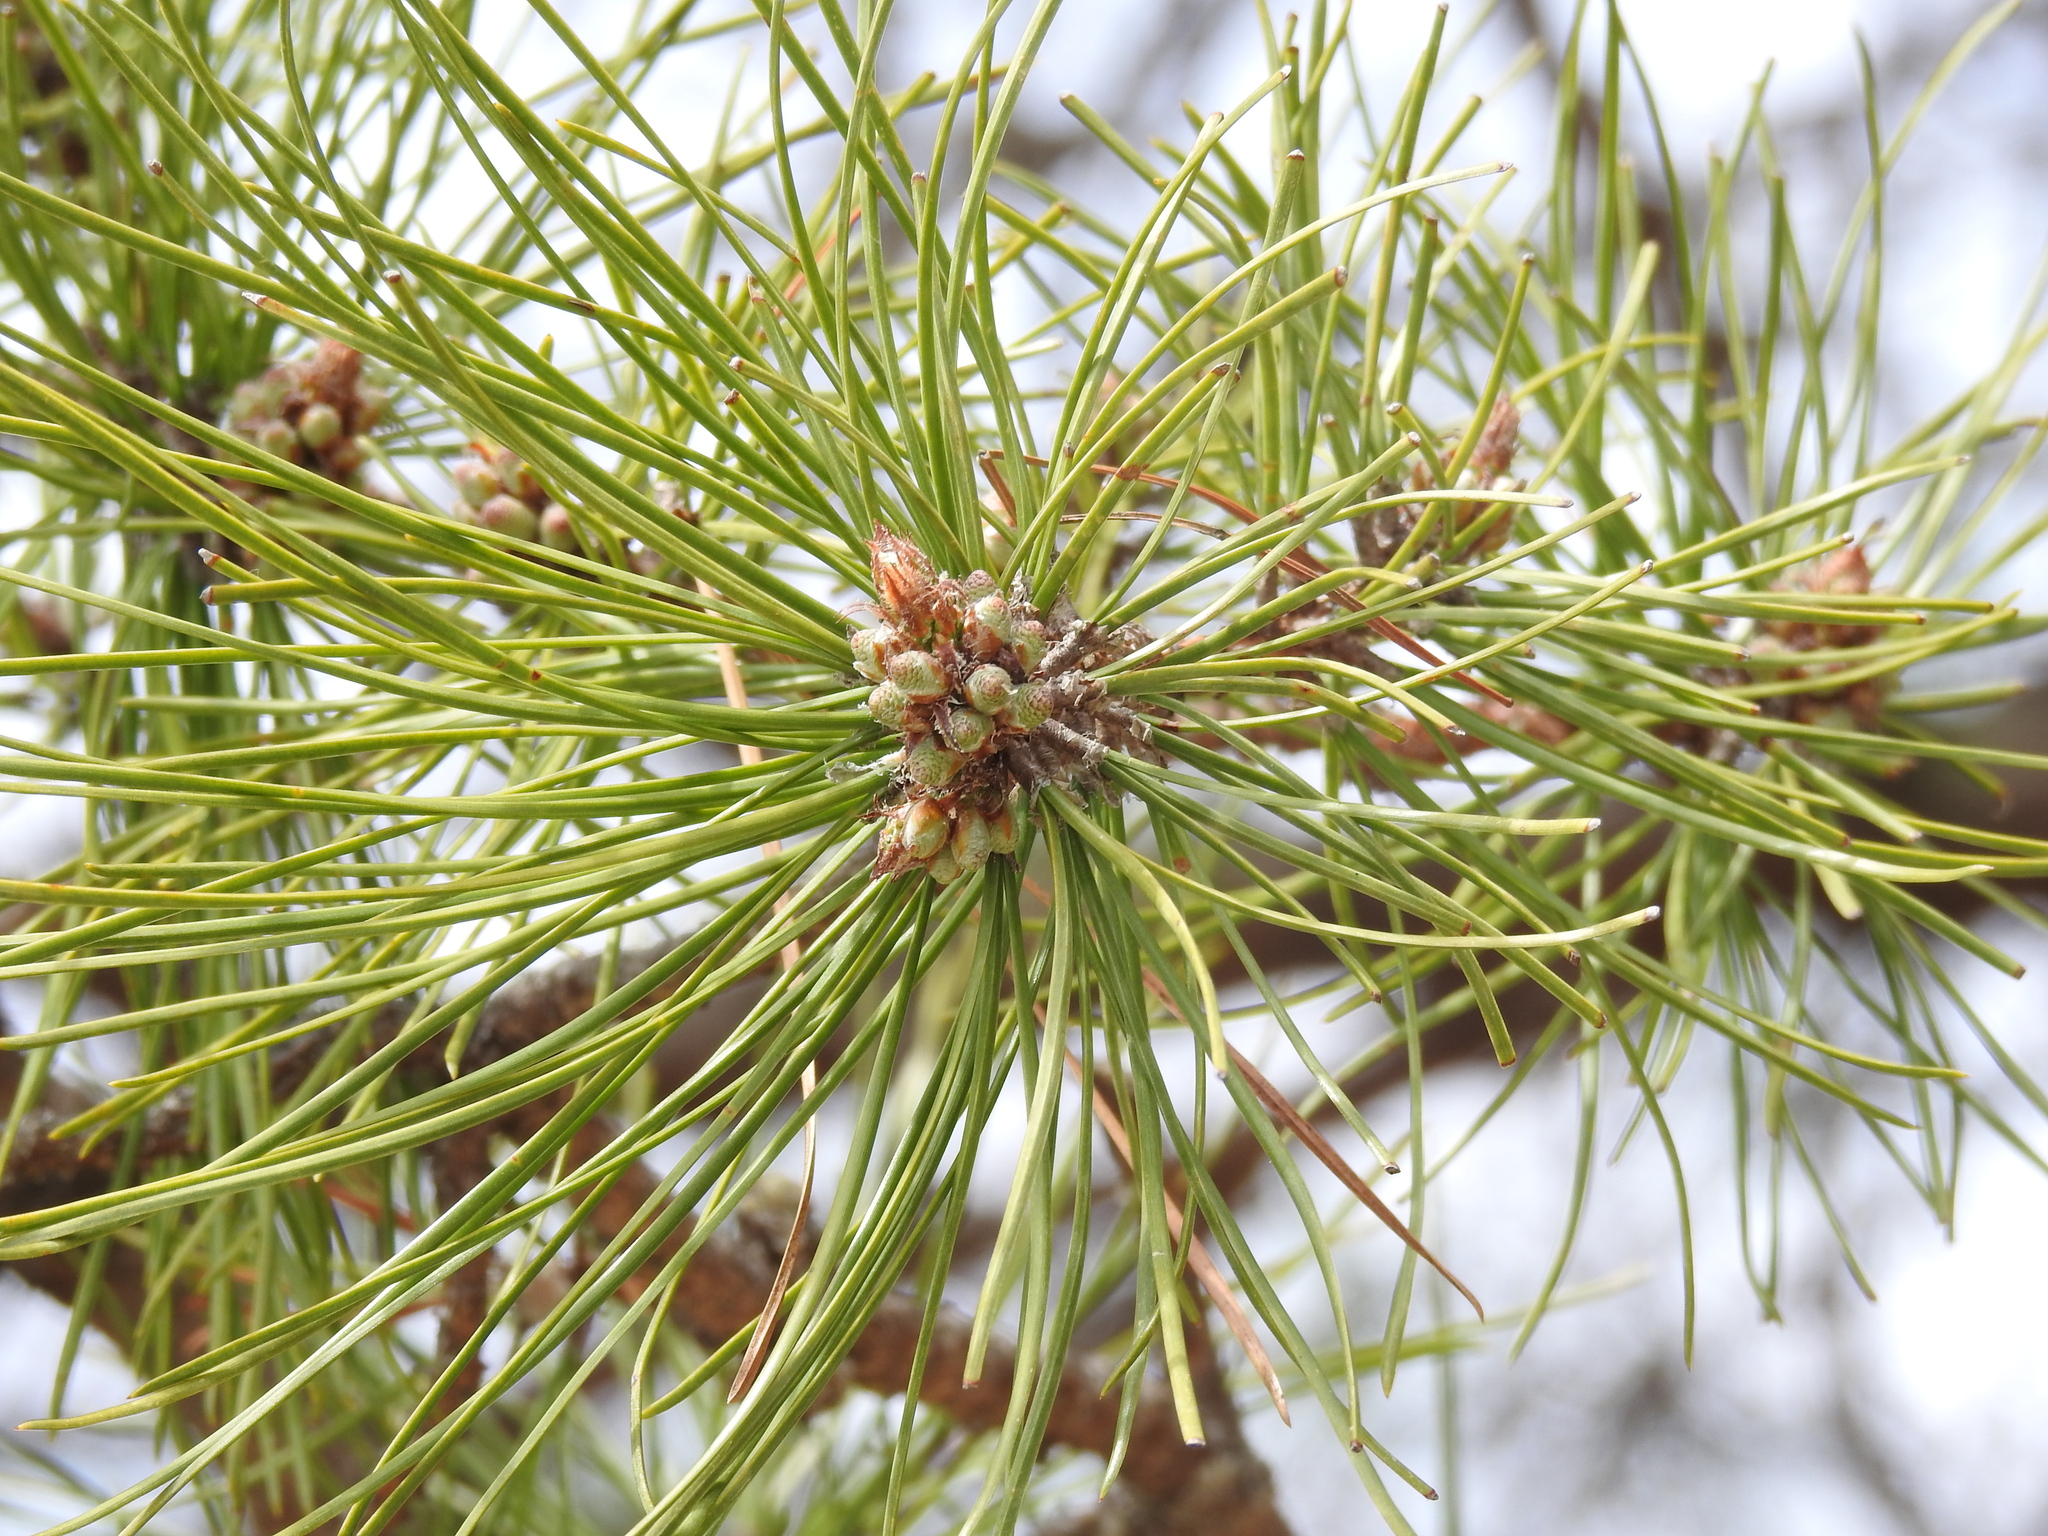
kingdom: Plantae
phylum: Tracheophyta
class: Pinopsida
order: Pinales
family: Pinaceae
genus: Pinus
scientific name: Pinus rigida
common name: Pitch pine
